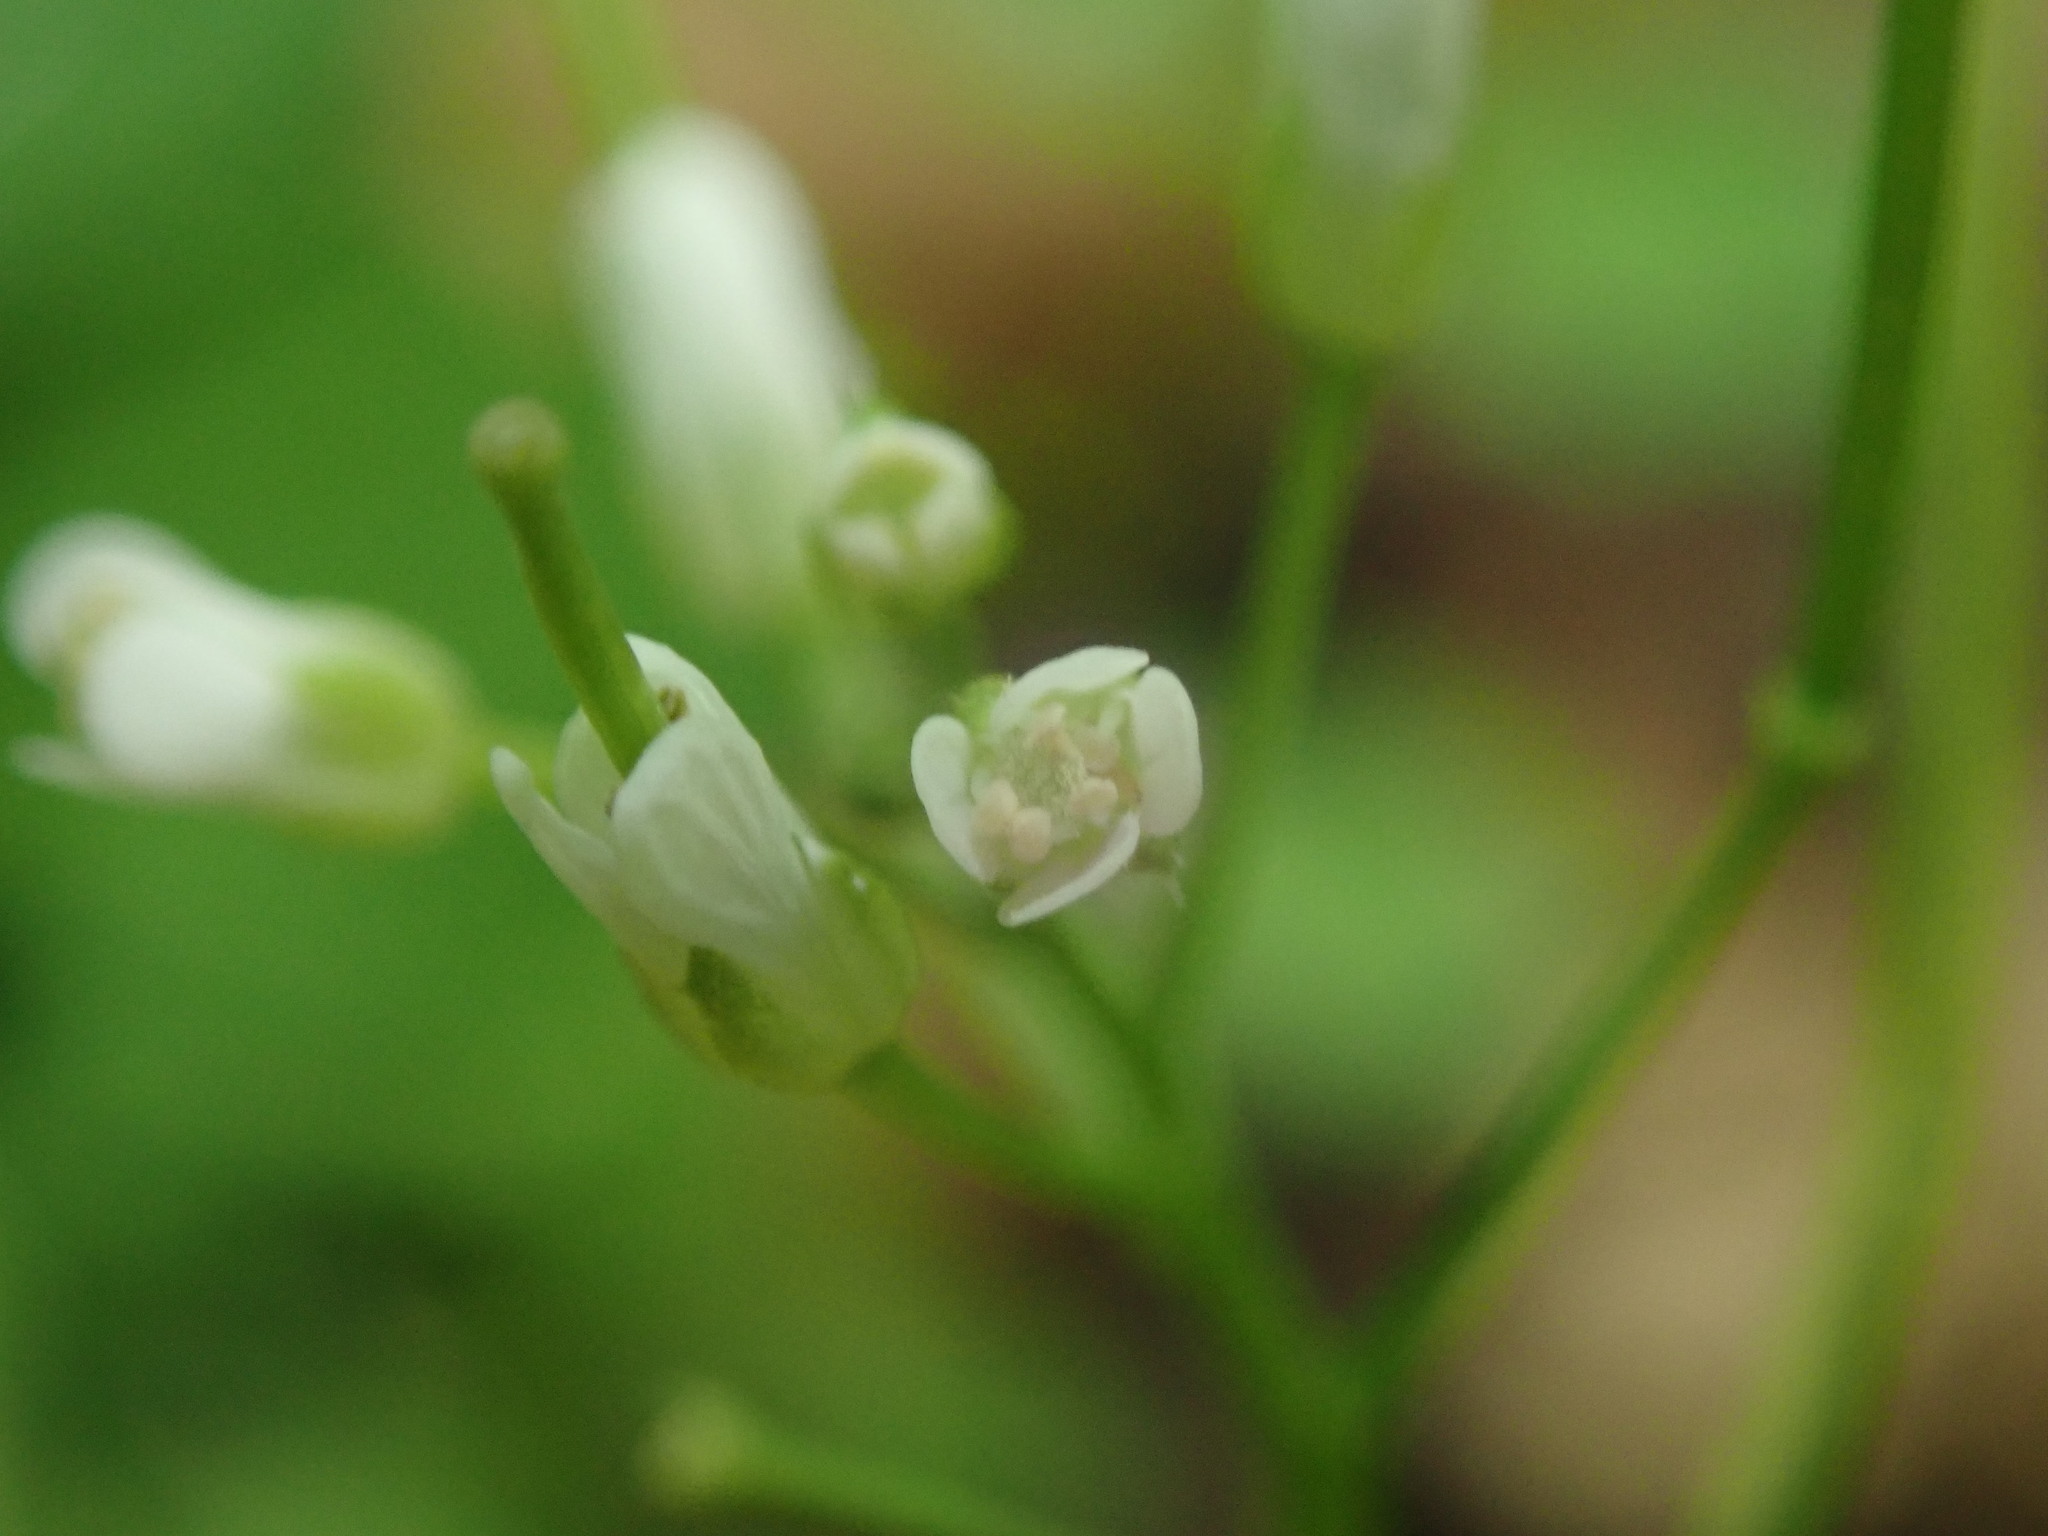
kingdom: Plantae
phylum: Tracheophyta
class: Magnoliopsida
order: Brassicales
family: Brassicaceae
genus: Cardamine
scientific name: Cardamine flexuosa
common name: Woodland bittercress
